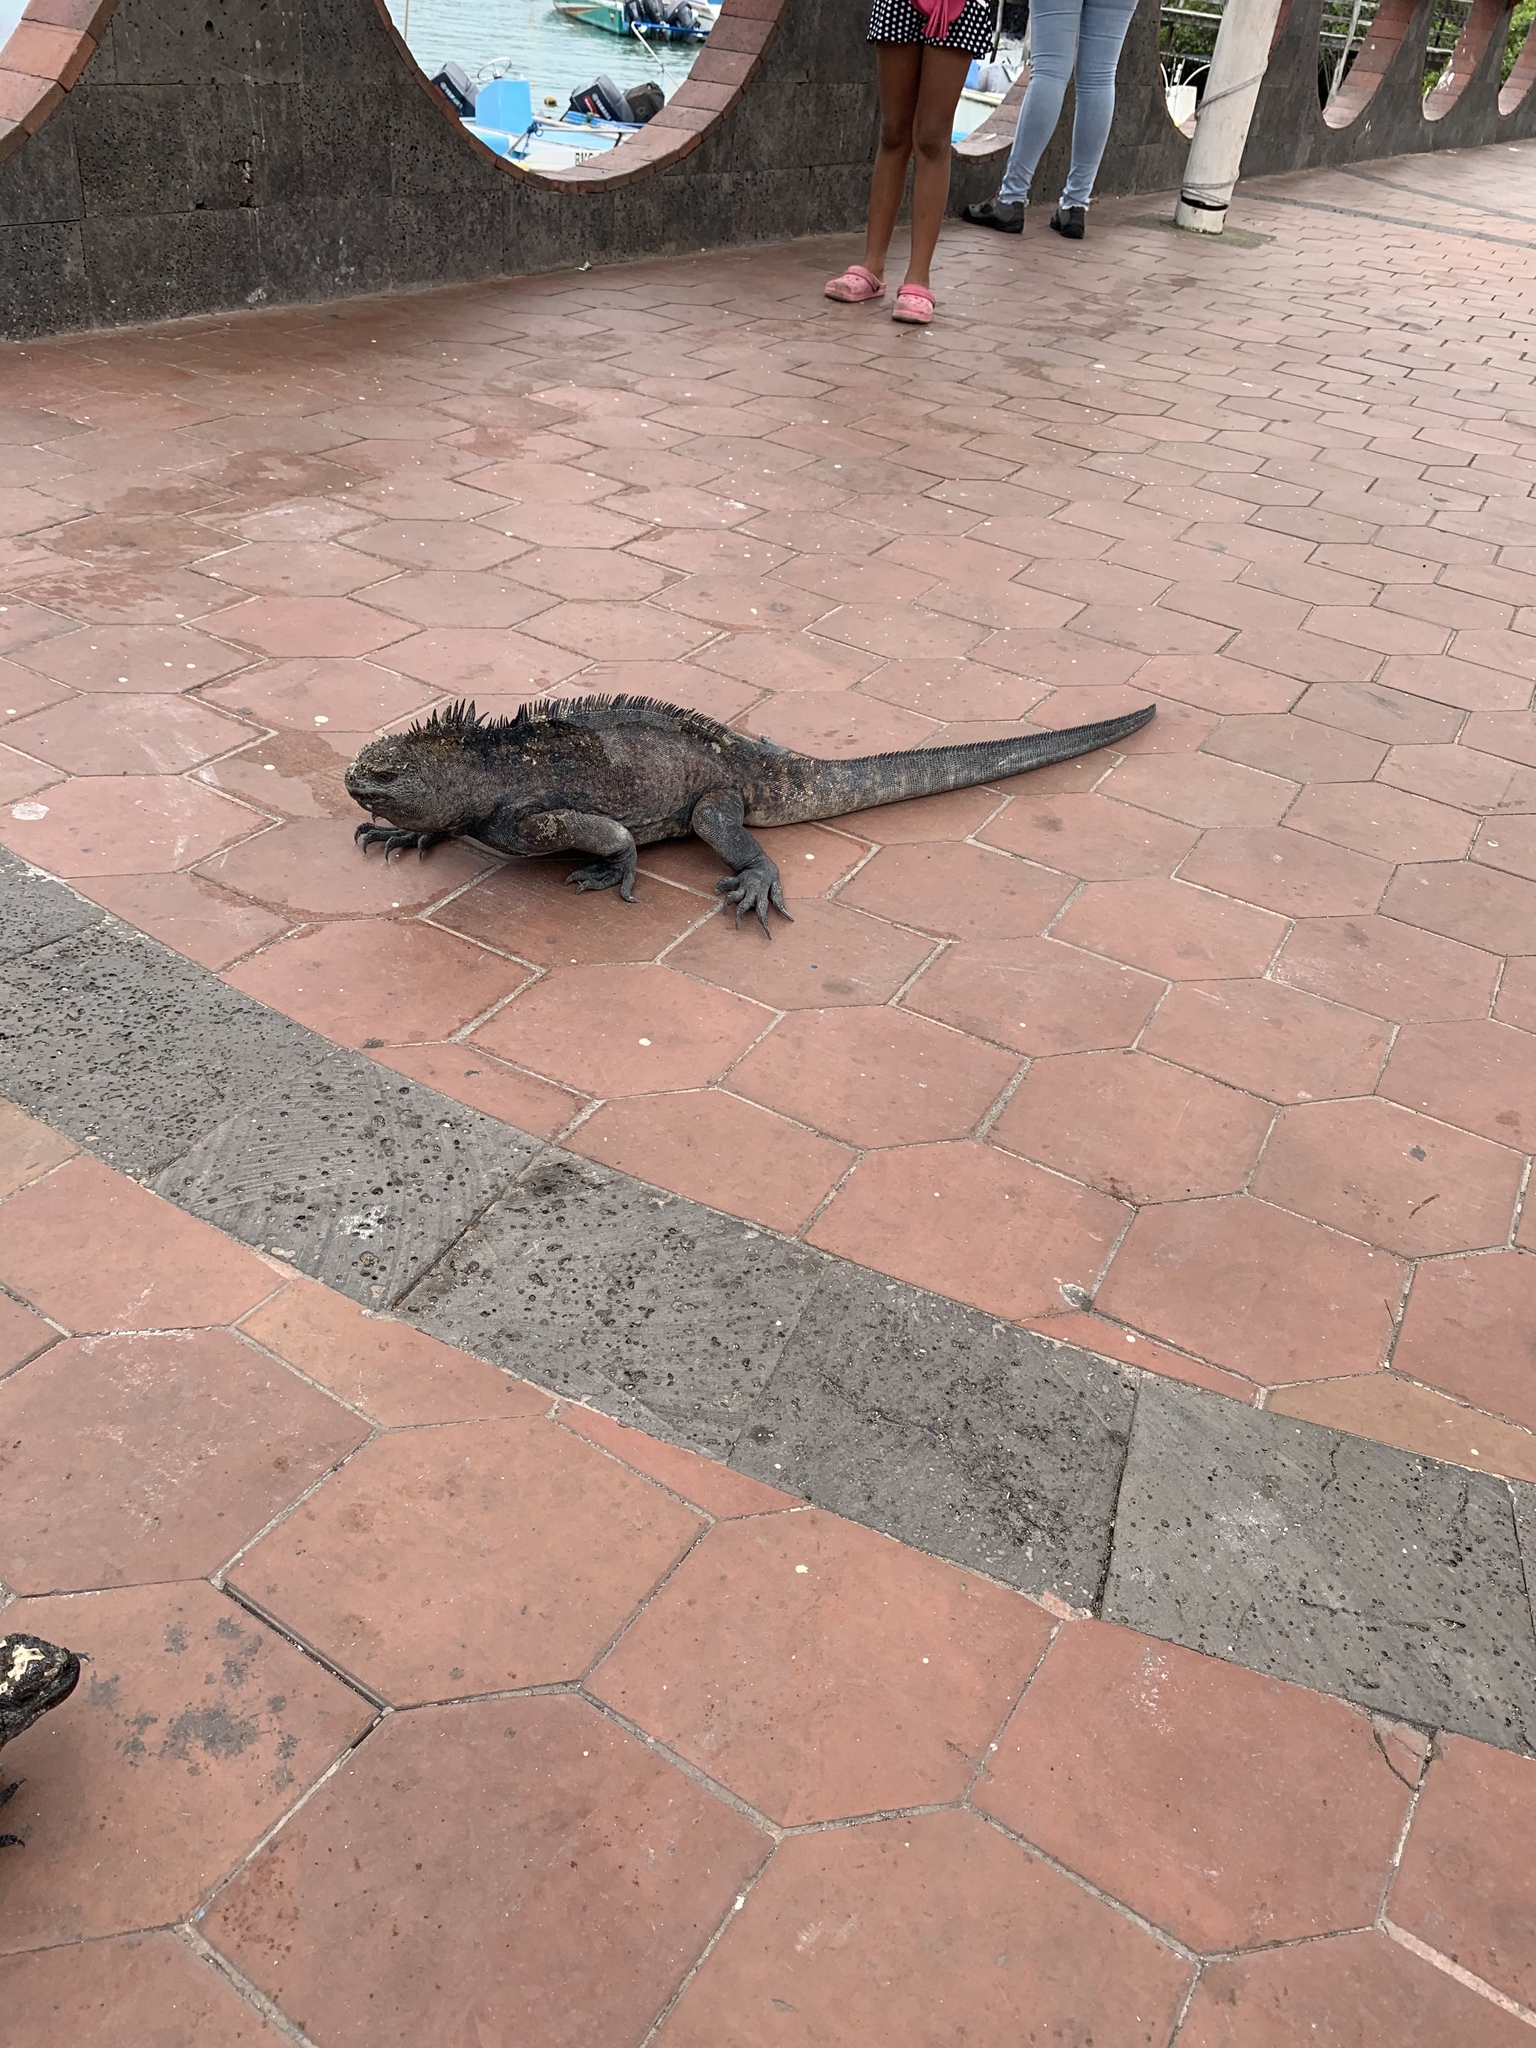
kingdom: Animalia
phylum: Chordata
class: Squamata
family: Iguanidae
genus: Amblyrhynchus
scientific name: Amblyrhynchus cristatus
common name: Marine iguana
